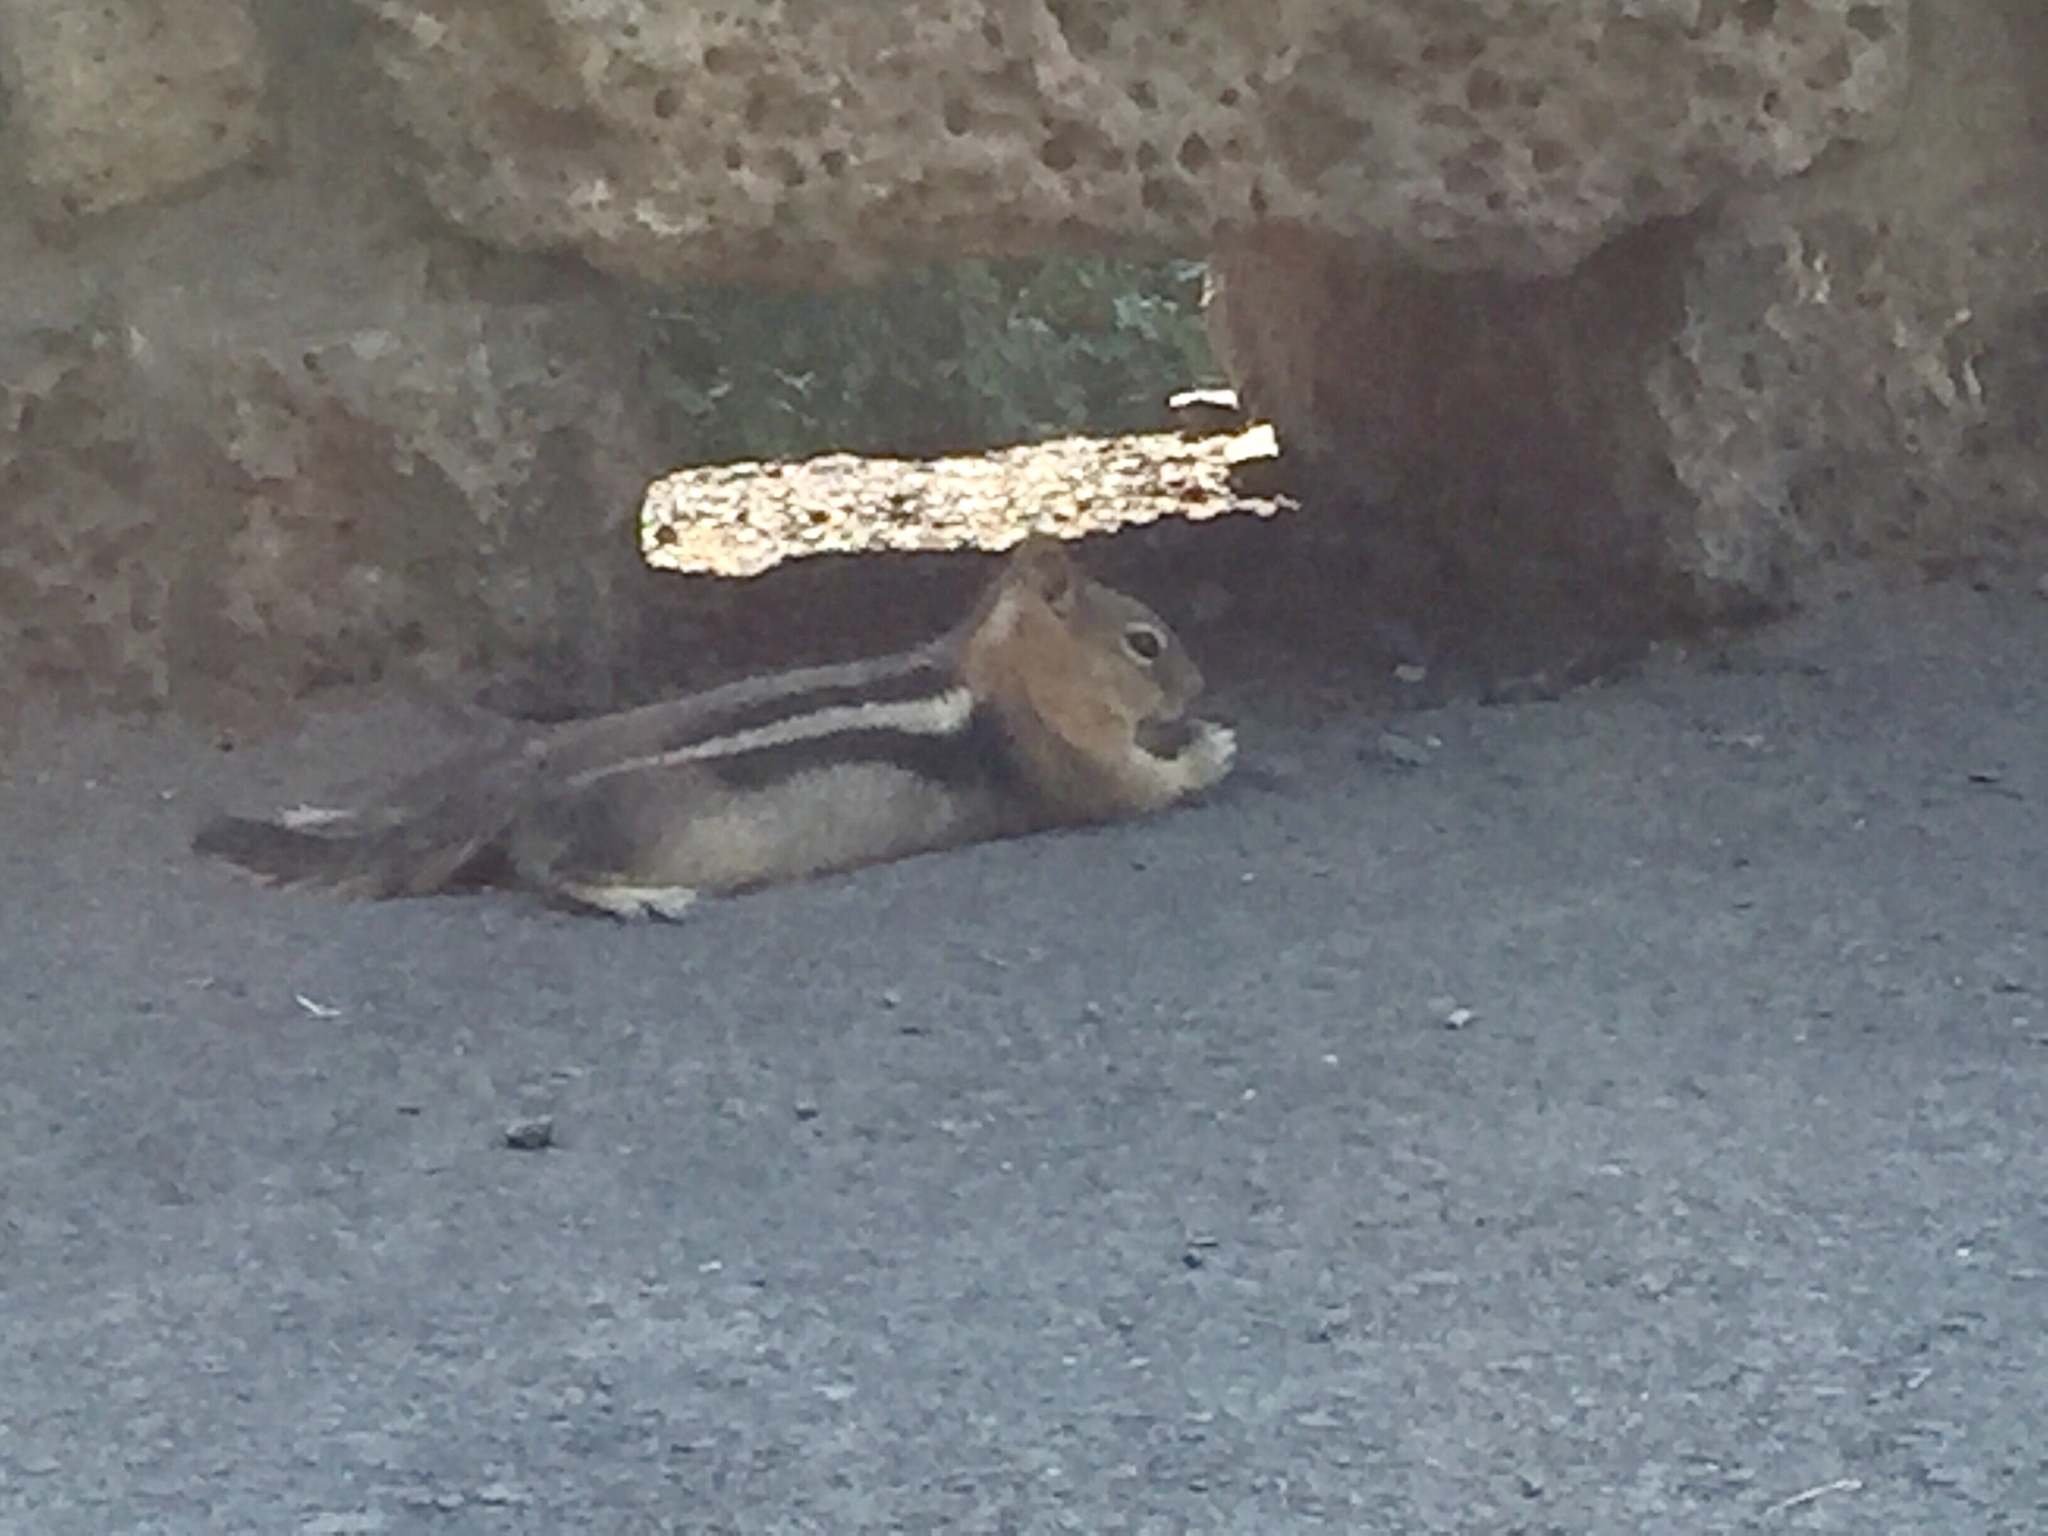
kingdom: Animalia
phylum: Chordata
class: Mammalia
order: Rodentia
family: Sciuridae
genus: Callospermophilus
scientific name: Callospermophilus lateralis
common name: Golden-mantled ground squirrel
